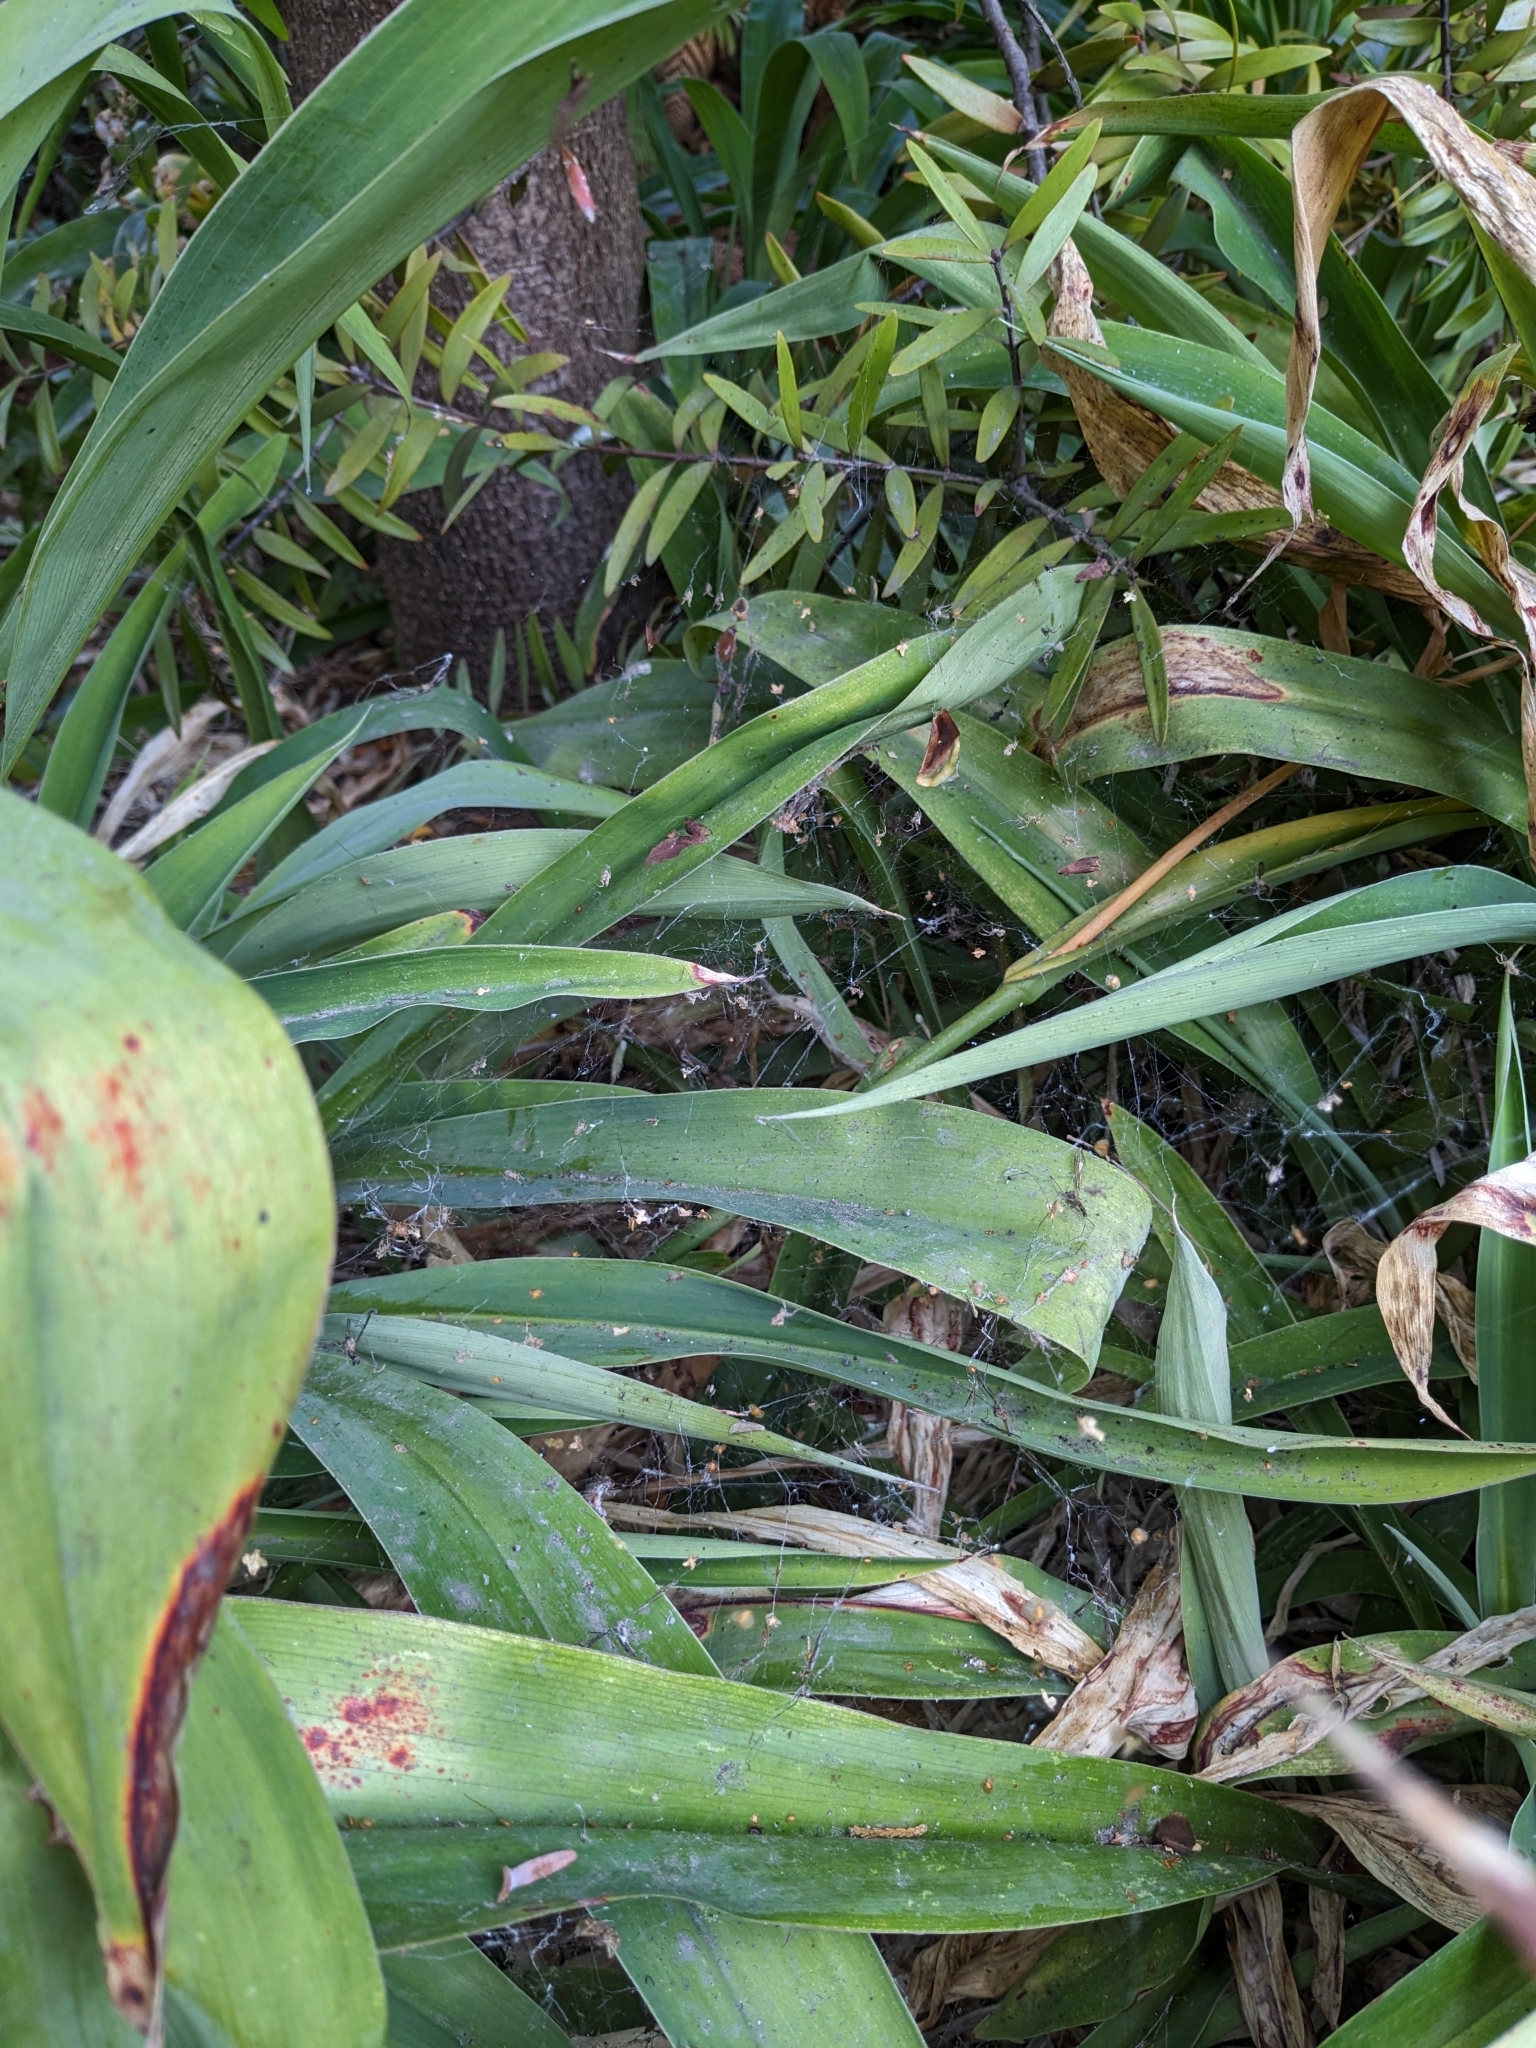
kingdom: Animalia
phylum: Arthropoda
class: Arachnida
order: Araneae
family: Uloboridae
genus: Philoponella
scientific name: Philoponella congregabilis
